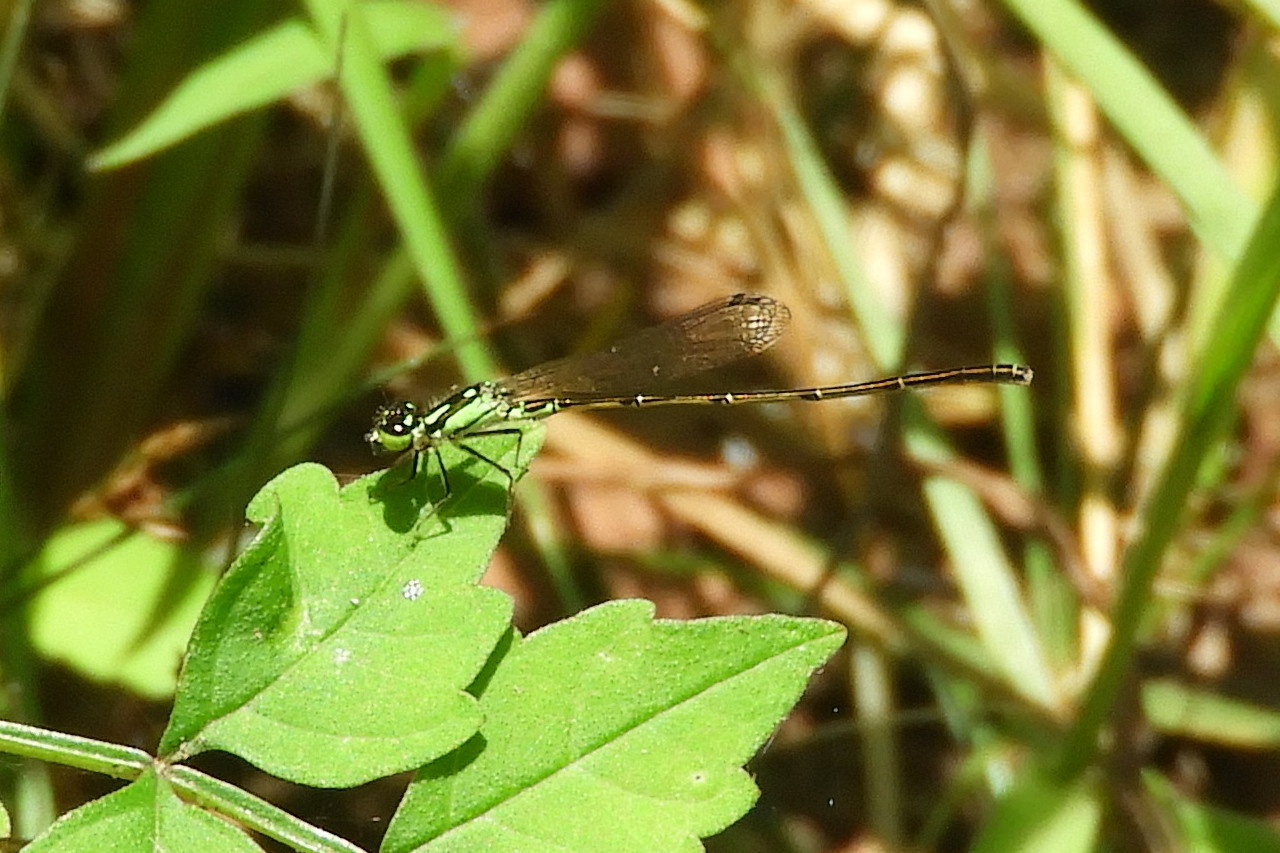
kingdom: Animalia
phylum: Arthropoda
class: Insecta
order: Odonata
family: Coenagrionidae
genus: Ischnura
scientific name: Ischnura posita
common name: Fragile forktail
